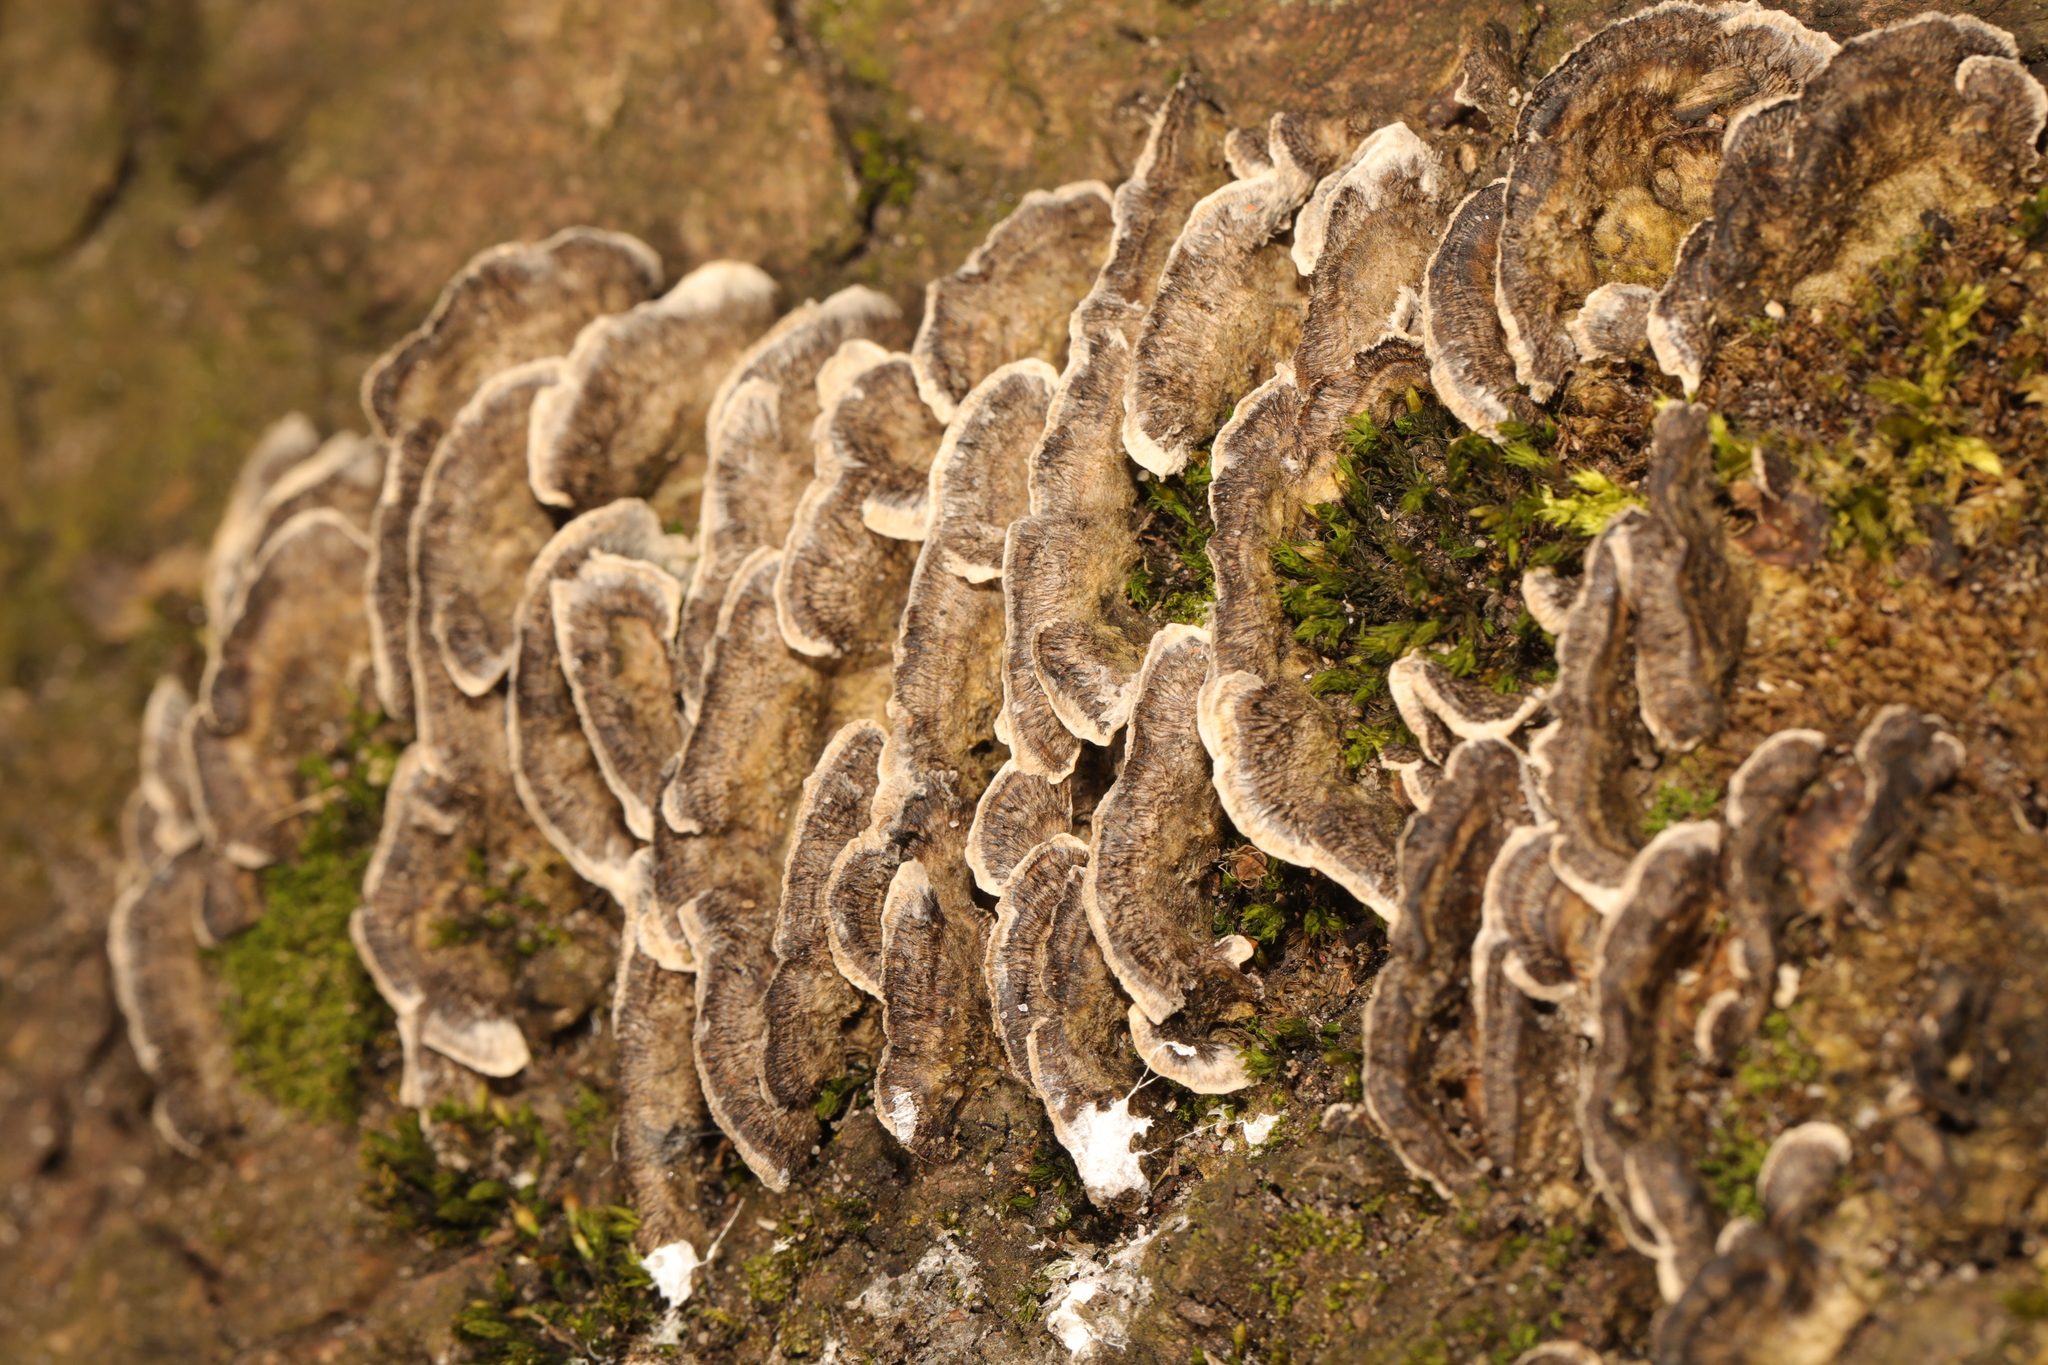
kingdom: Fungi
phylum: Basidiomycota
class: Agaricomycetes
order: Polyporales
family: Phanerochaetaceae
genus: Bjerkandera
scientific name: Bjerkandera adusta
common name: Smoky bracket
